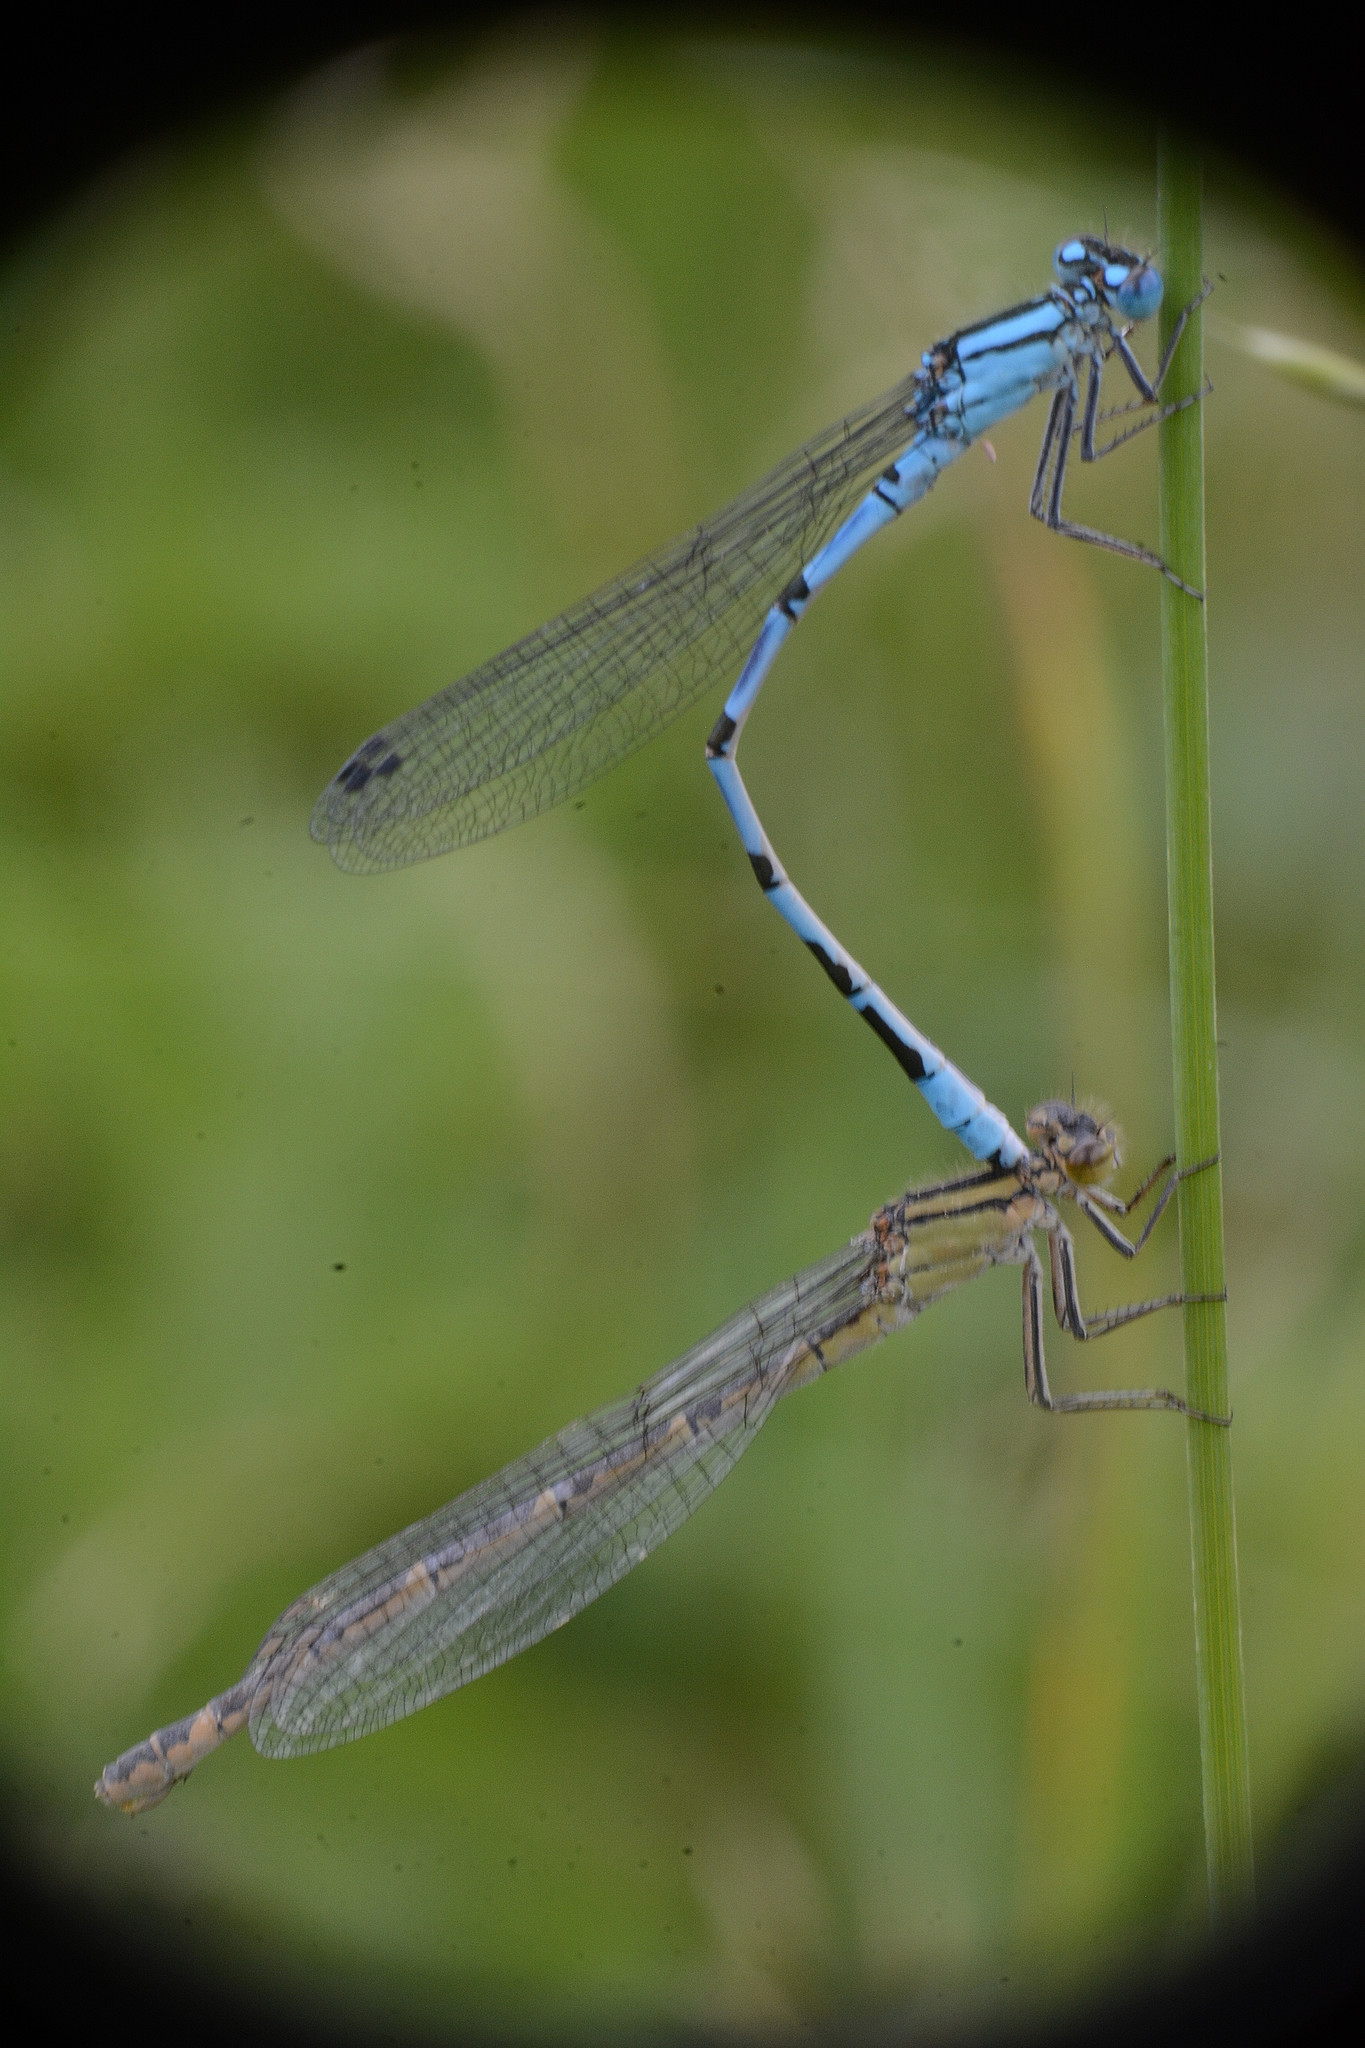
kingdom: Animalia
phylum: Arthropoda
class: Insecta
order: Odonata
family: Coenagrionidae
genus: Enallagma
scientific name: Enallagma cyathigerum
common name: Common blue damselfly
